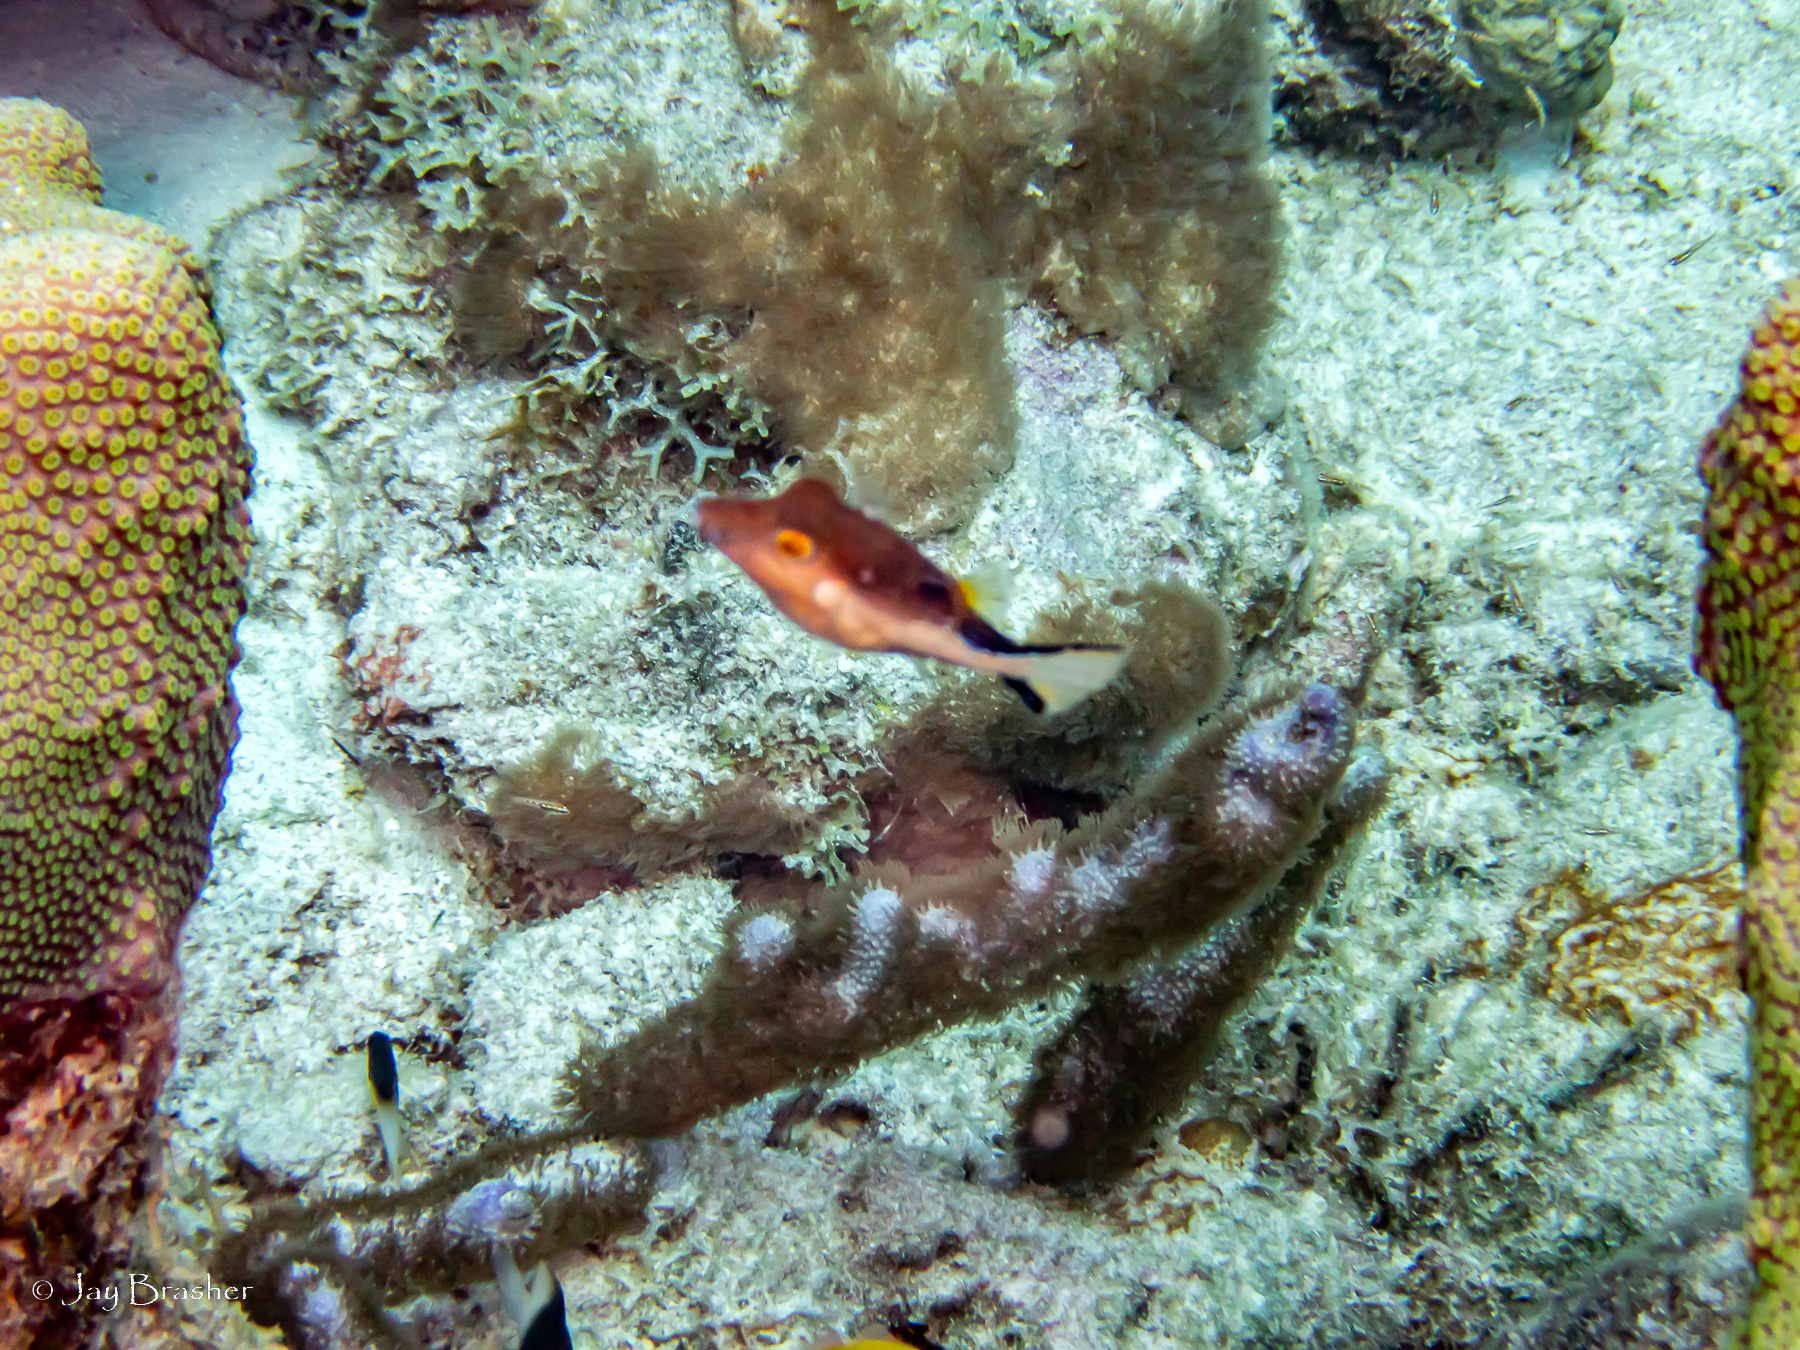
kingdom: Animalia
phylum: Chordata
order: Tetraodontiformes
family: Tetraodontidae
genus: Canthigaster
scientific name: Canthigaster rostrata
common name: Caribbean sharpnose-puffer
